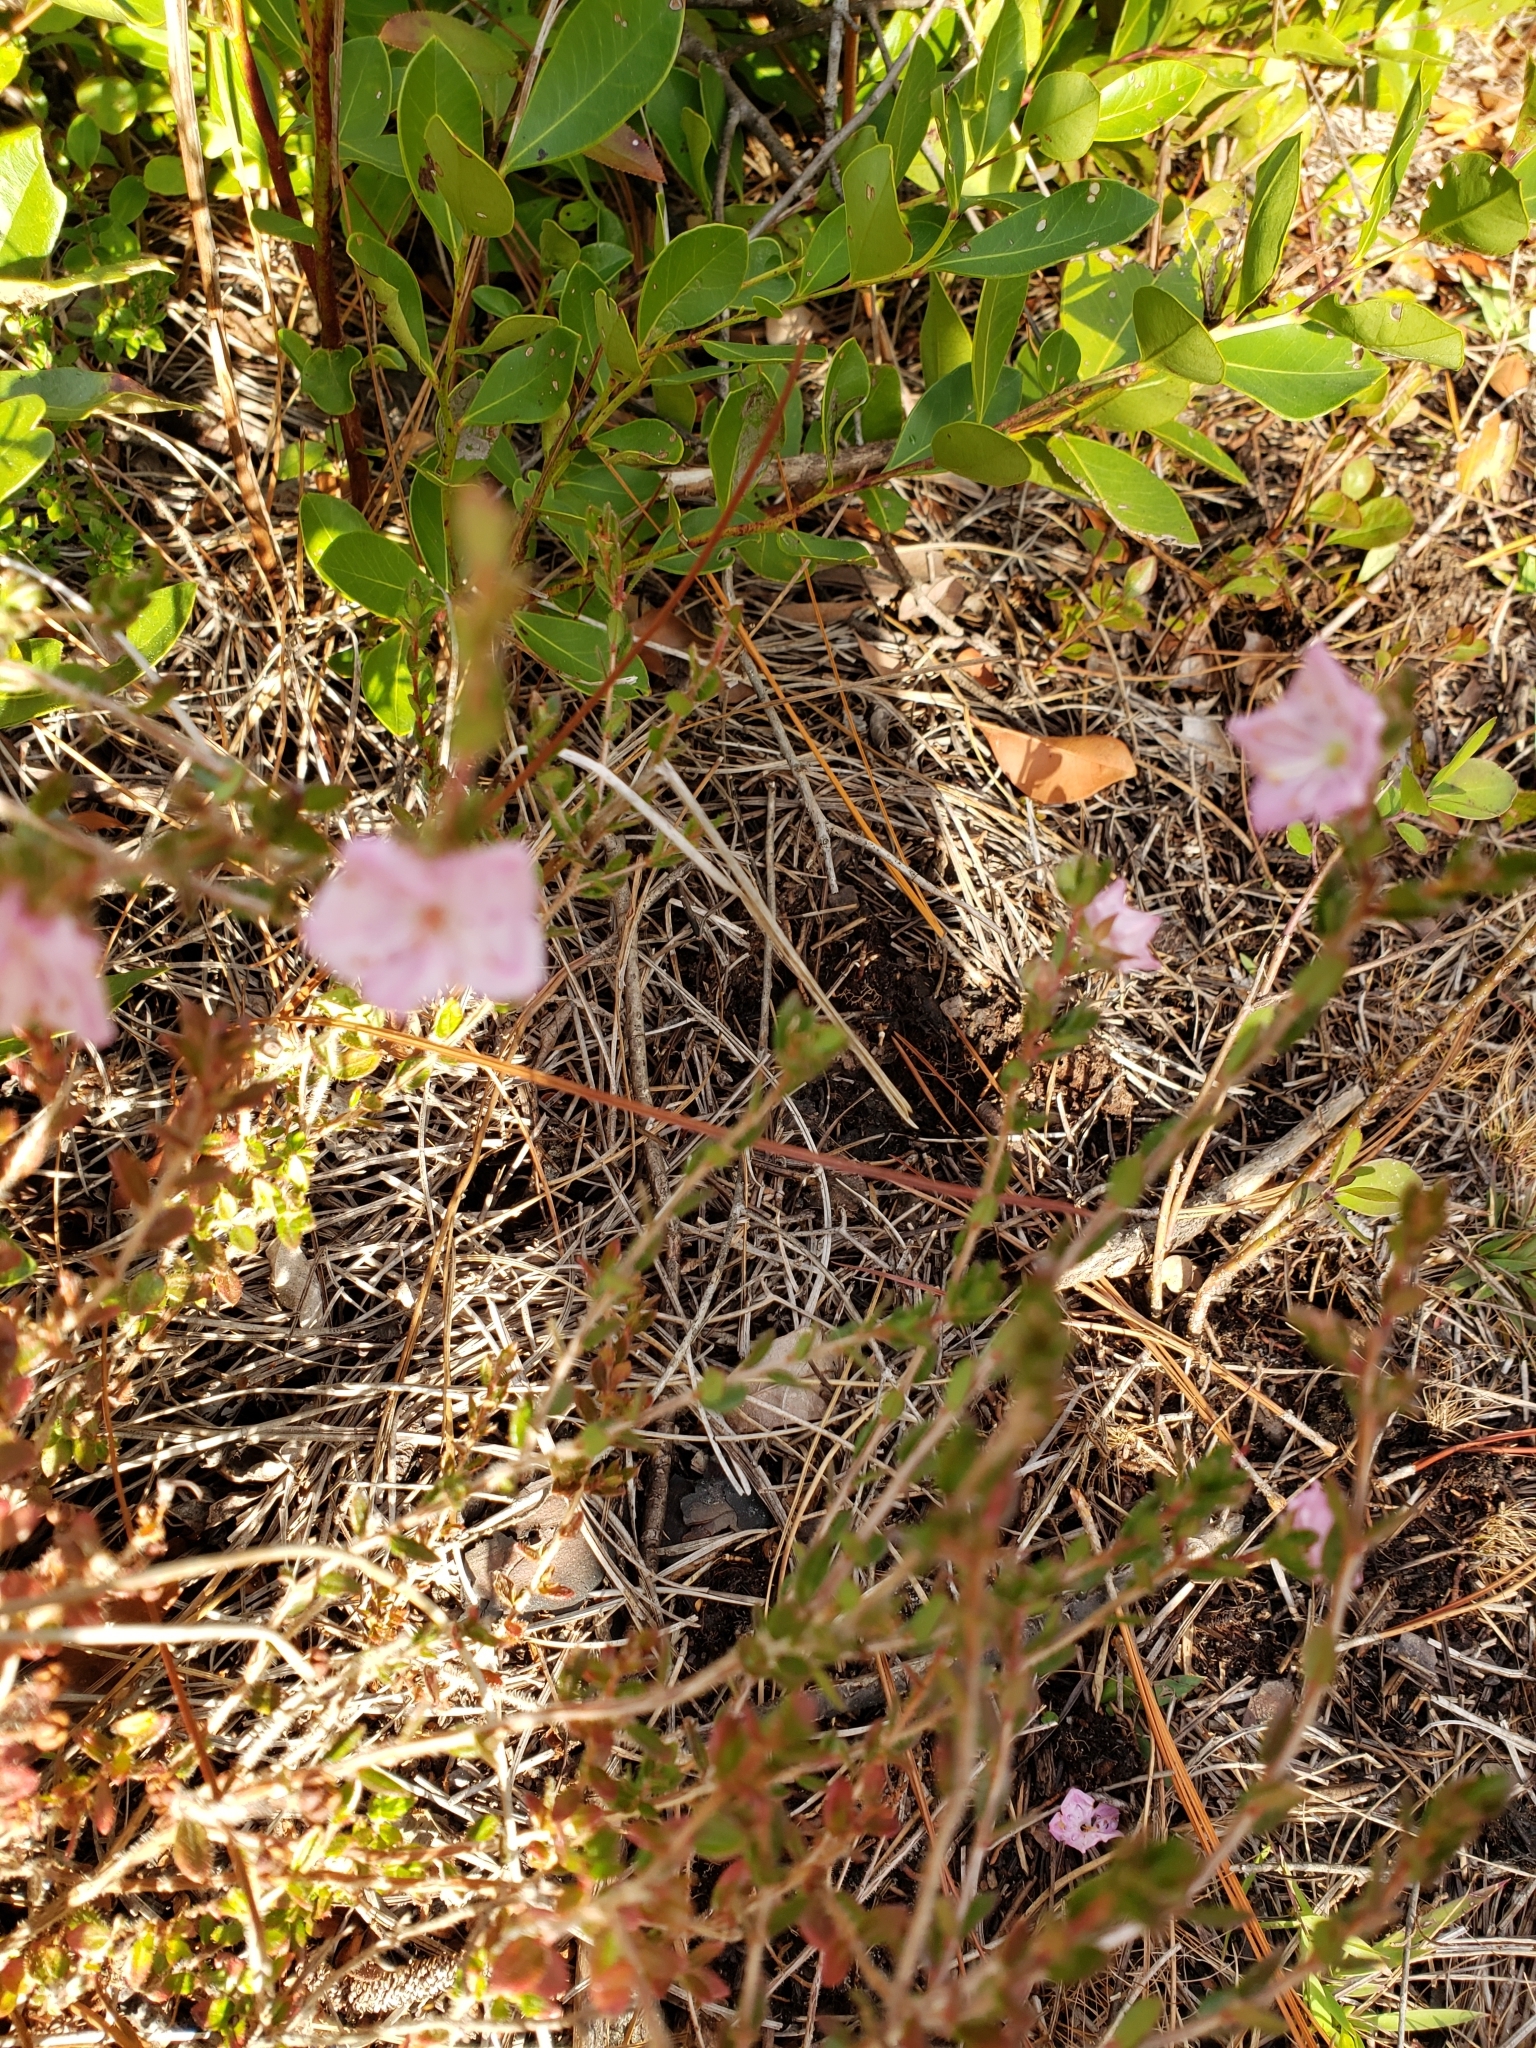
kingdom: Plantae
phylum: Tracheophyta
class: Magnoliopsida
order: Ericales
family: Ericaceae
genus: Kalmia
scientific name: Kalmia hirsuta
